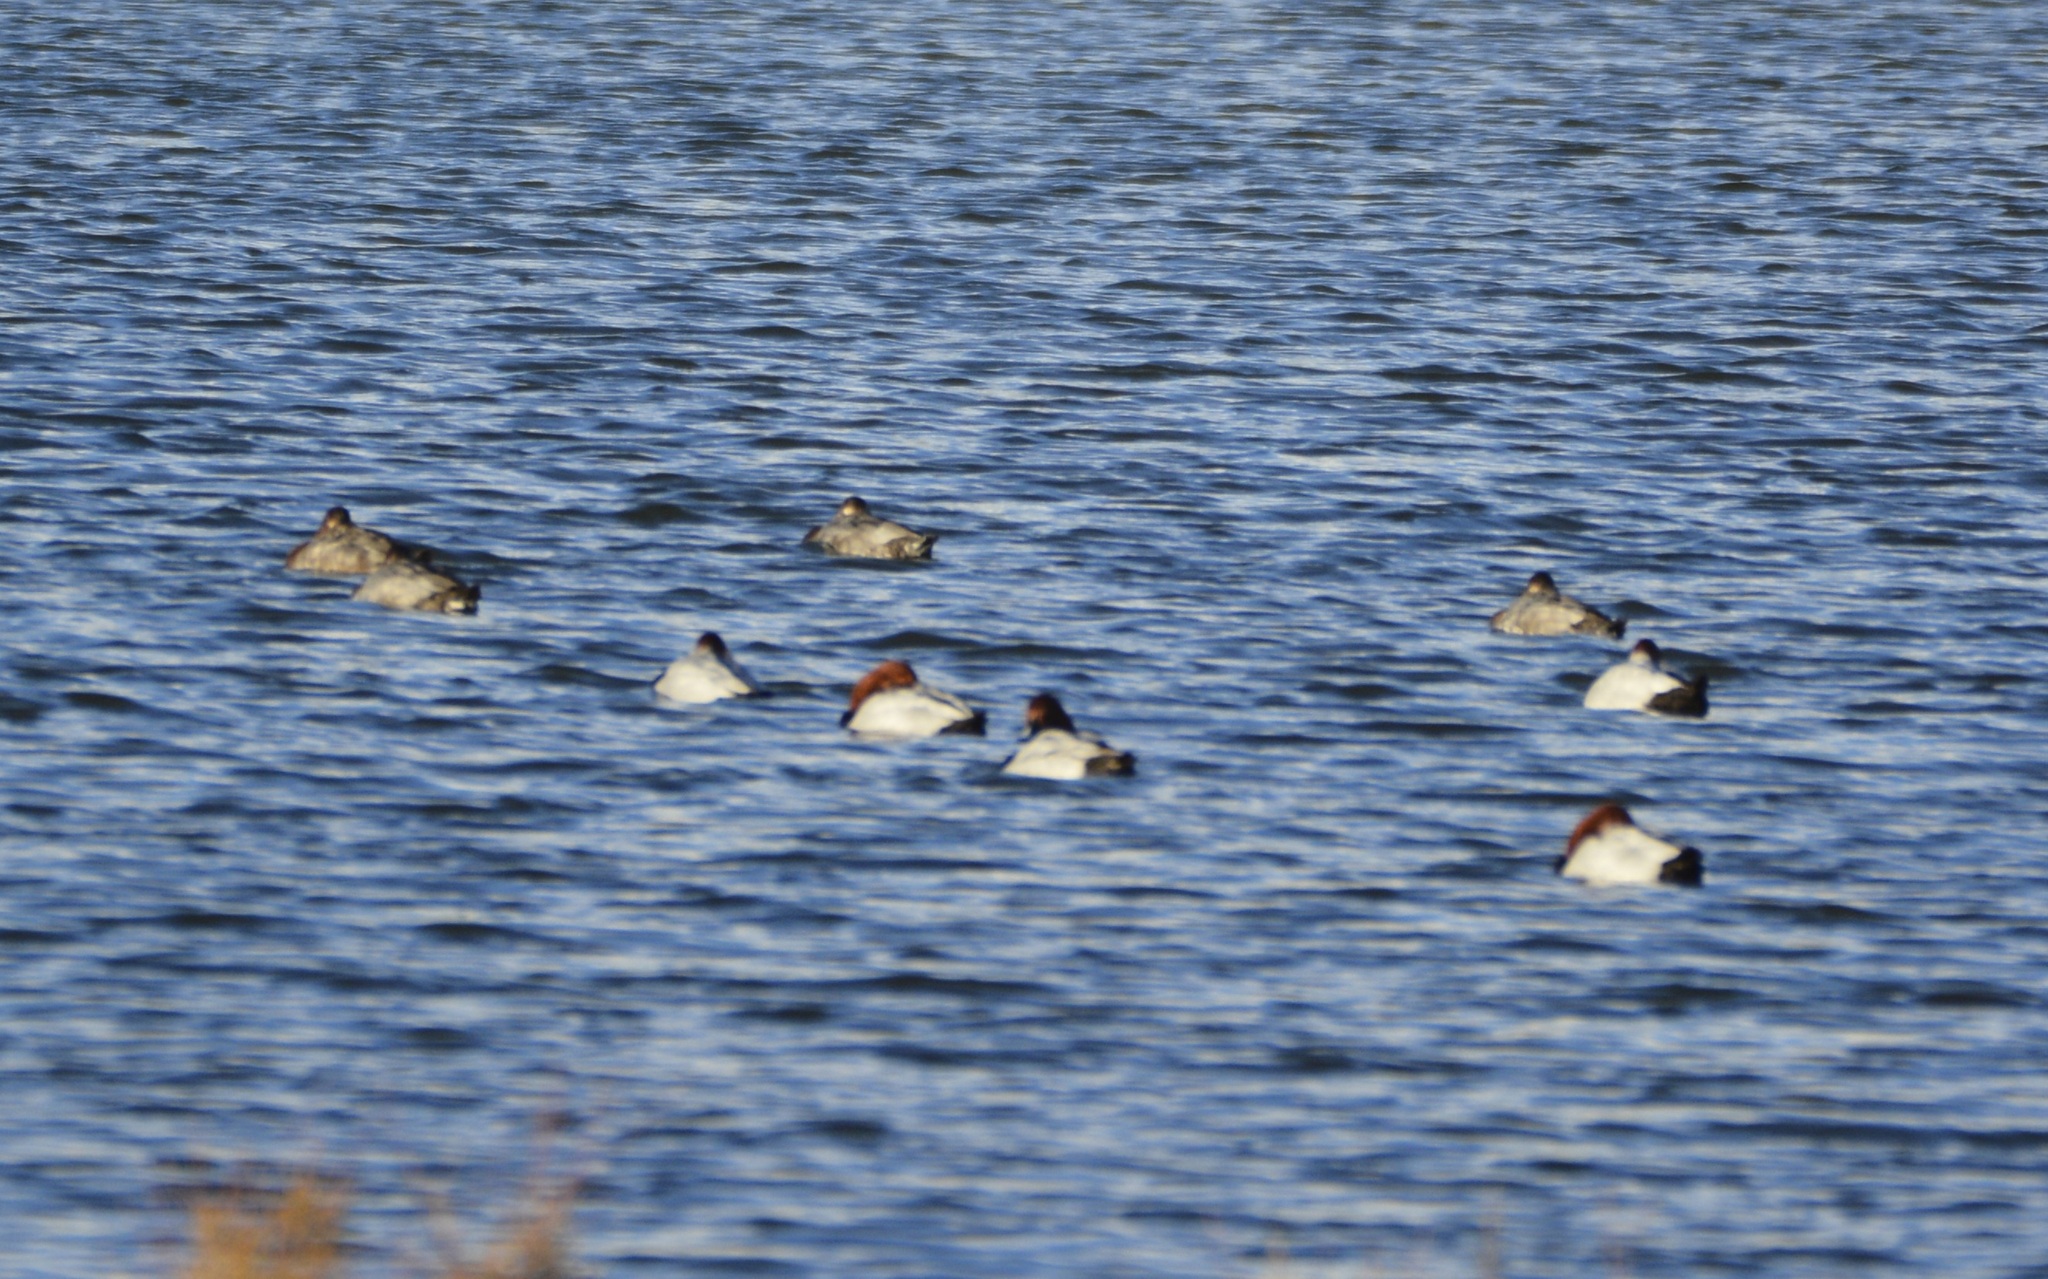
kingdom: Animalia
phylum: Chordata
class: Aves
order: Anseriformes
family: Anatidae
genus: Aythya
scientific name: Aythya ferina
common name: Common pochard
